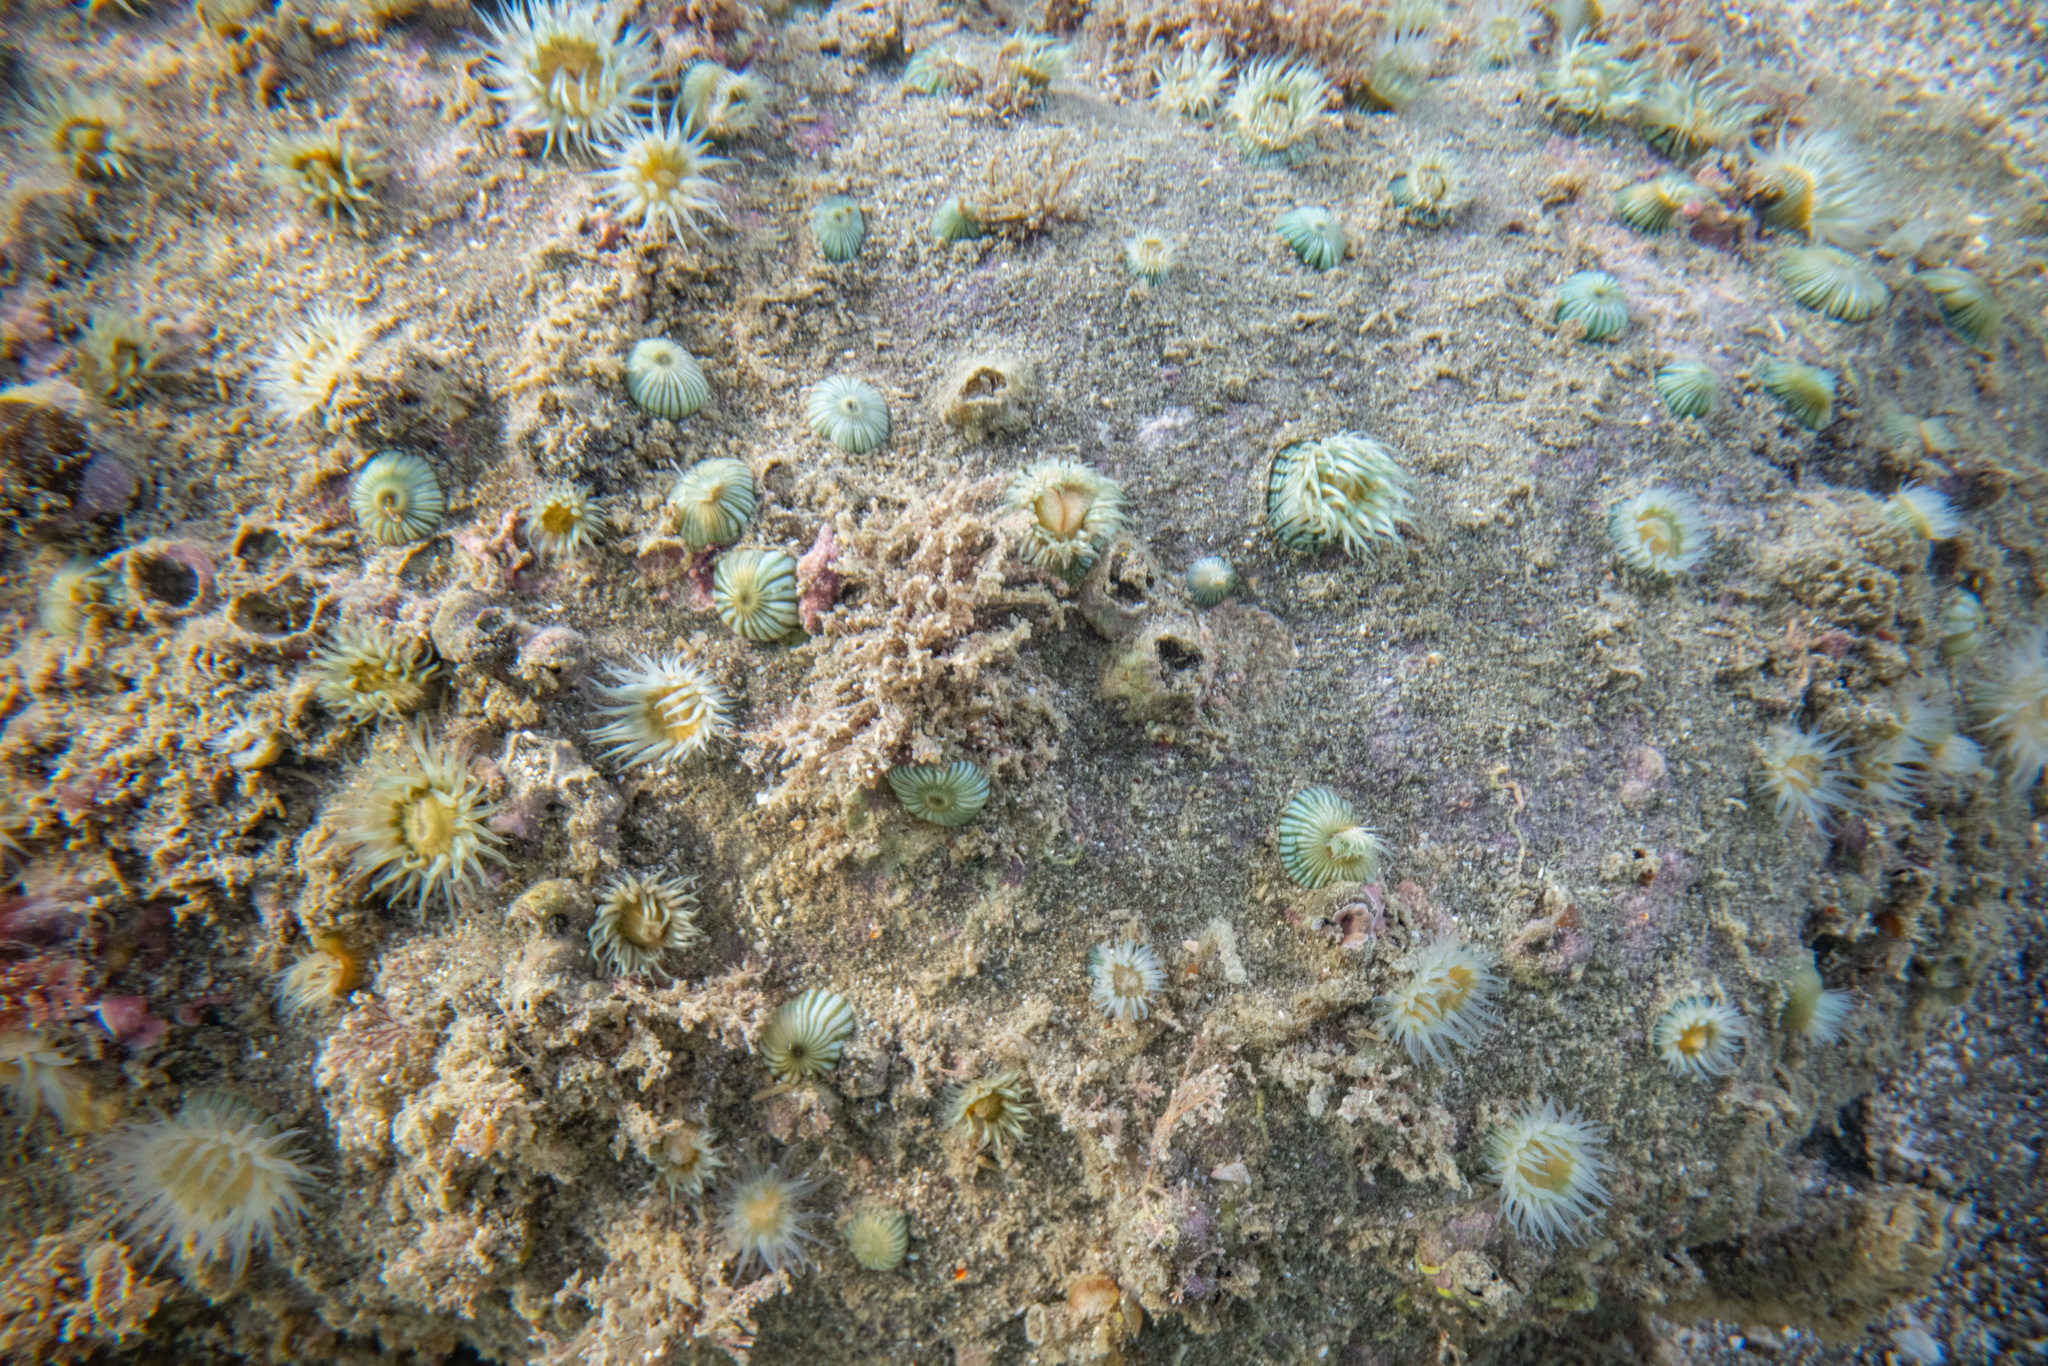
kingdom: Animalia
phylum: Cnidaria
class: Anthozoa
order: Actiniaria
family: Sagartiidae
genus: Anthothoe
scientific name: Anthothoe albocincta
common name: Orange striped anemone
